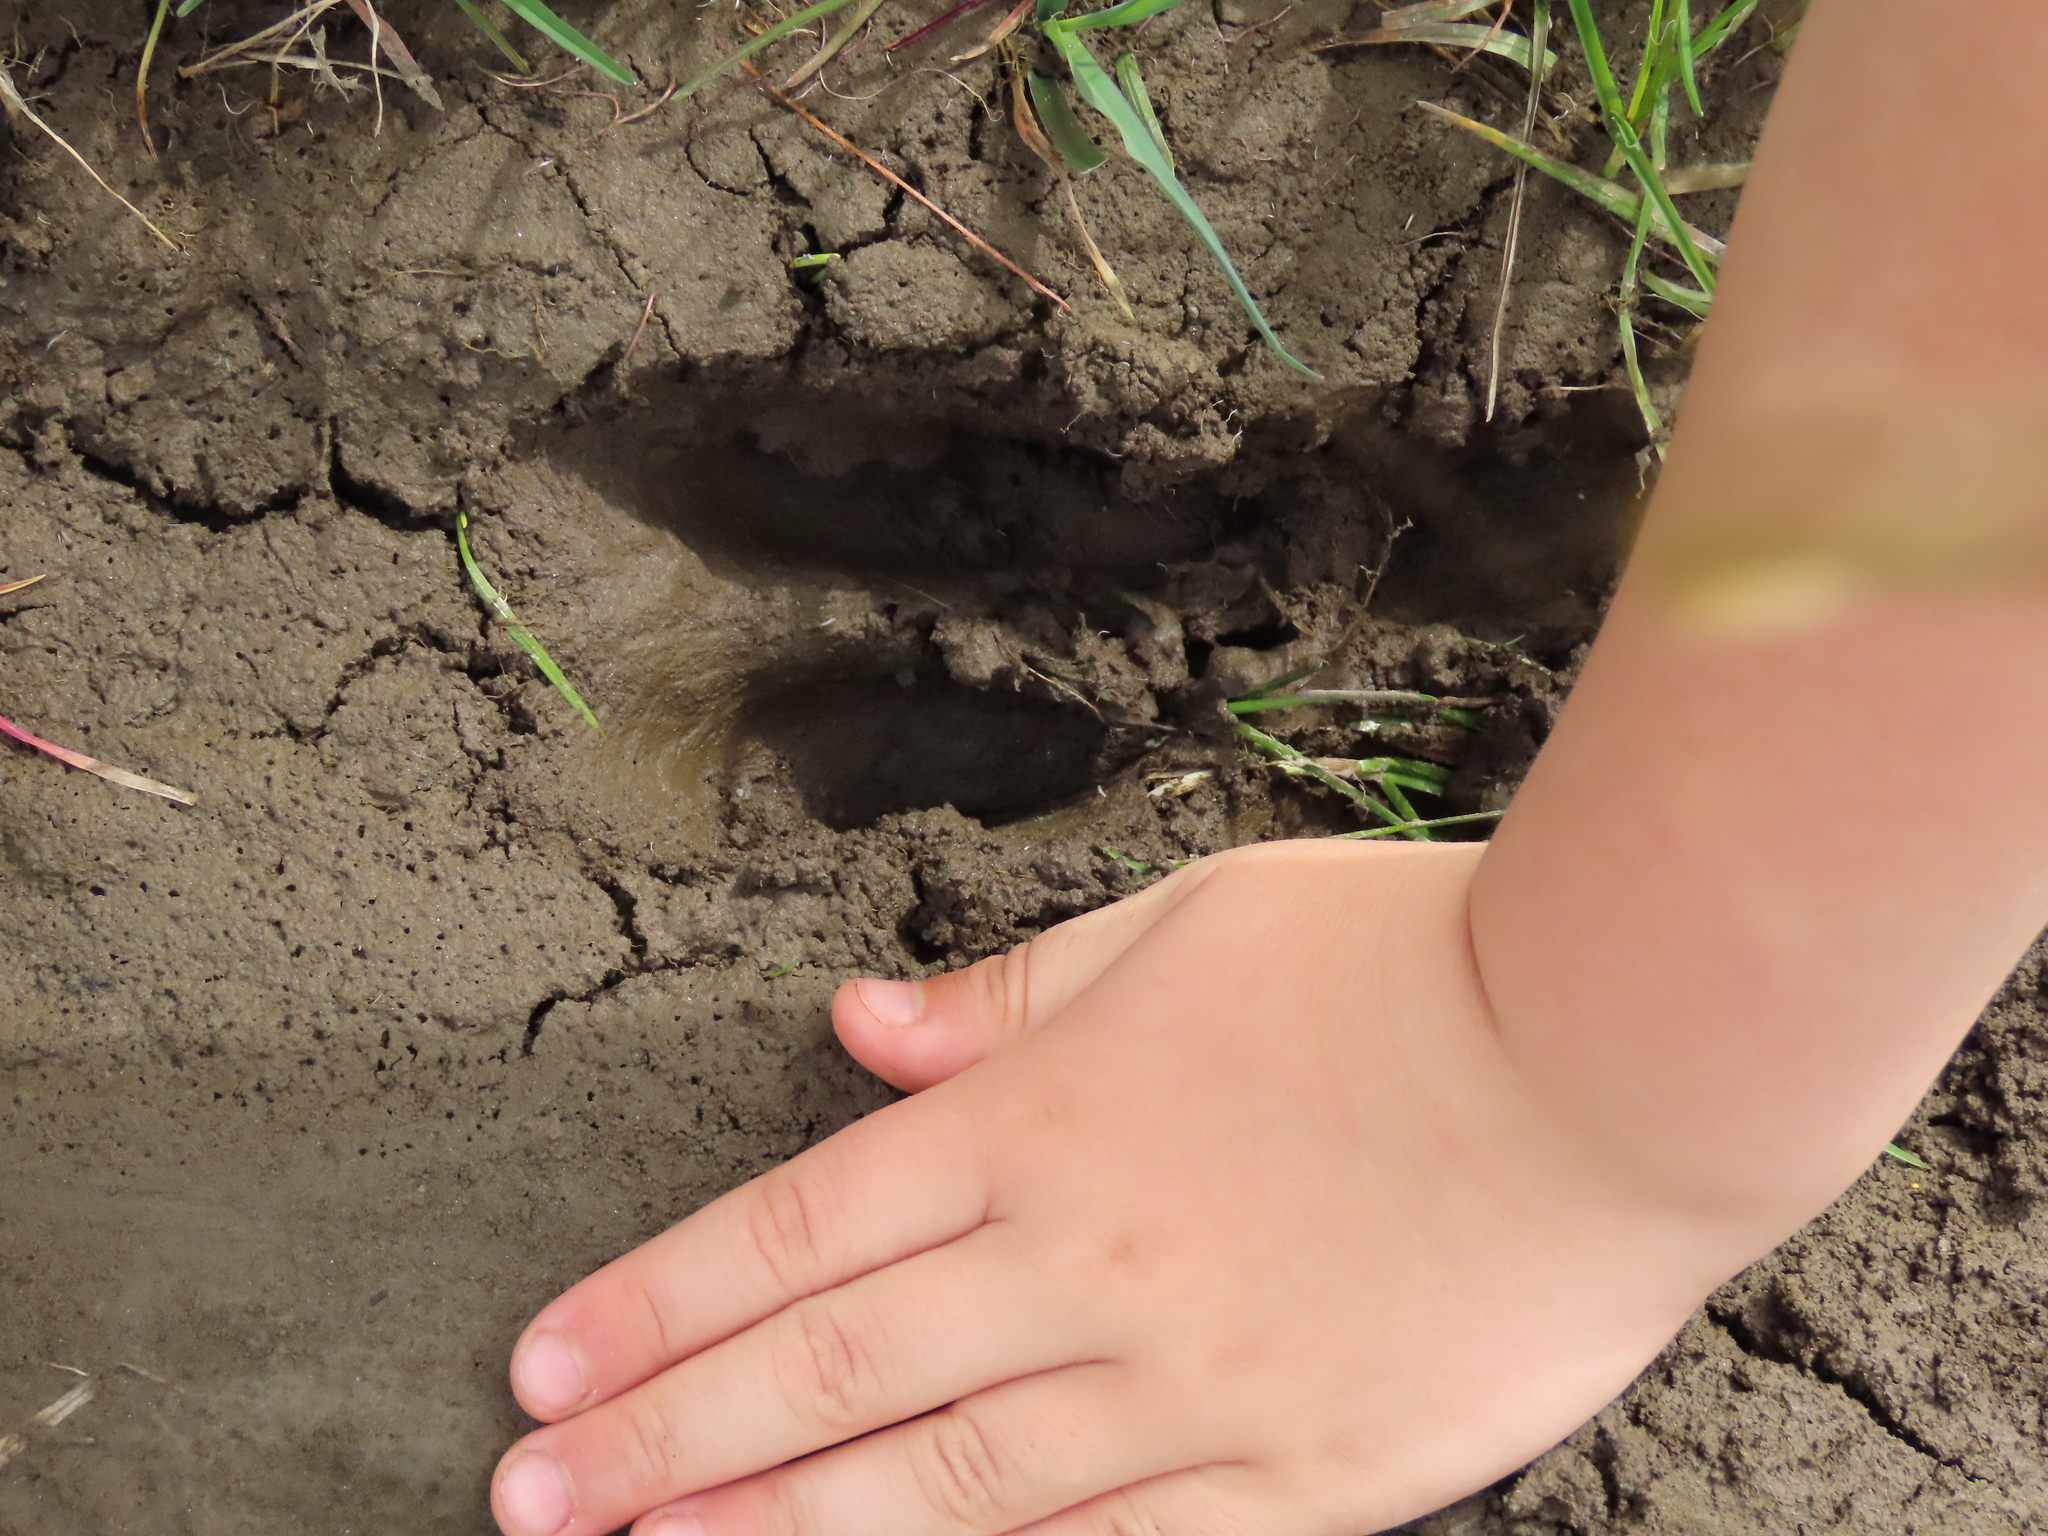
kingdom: Animalia
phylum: Chordata
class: Mammalia
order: Artiodactyla
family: Cervidae
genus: Odocoileus
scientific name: Odocoileus virginianus
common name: White-tailed deer
